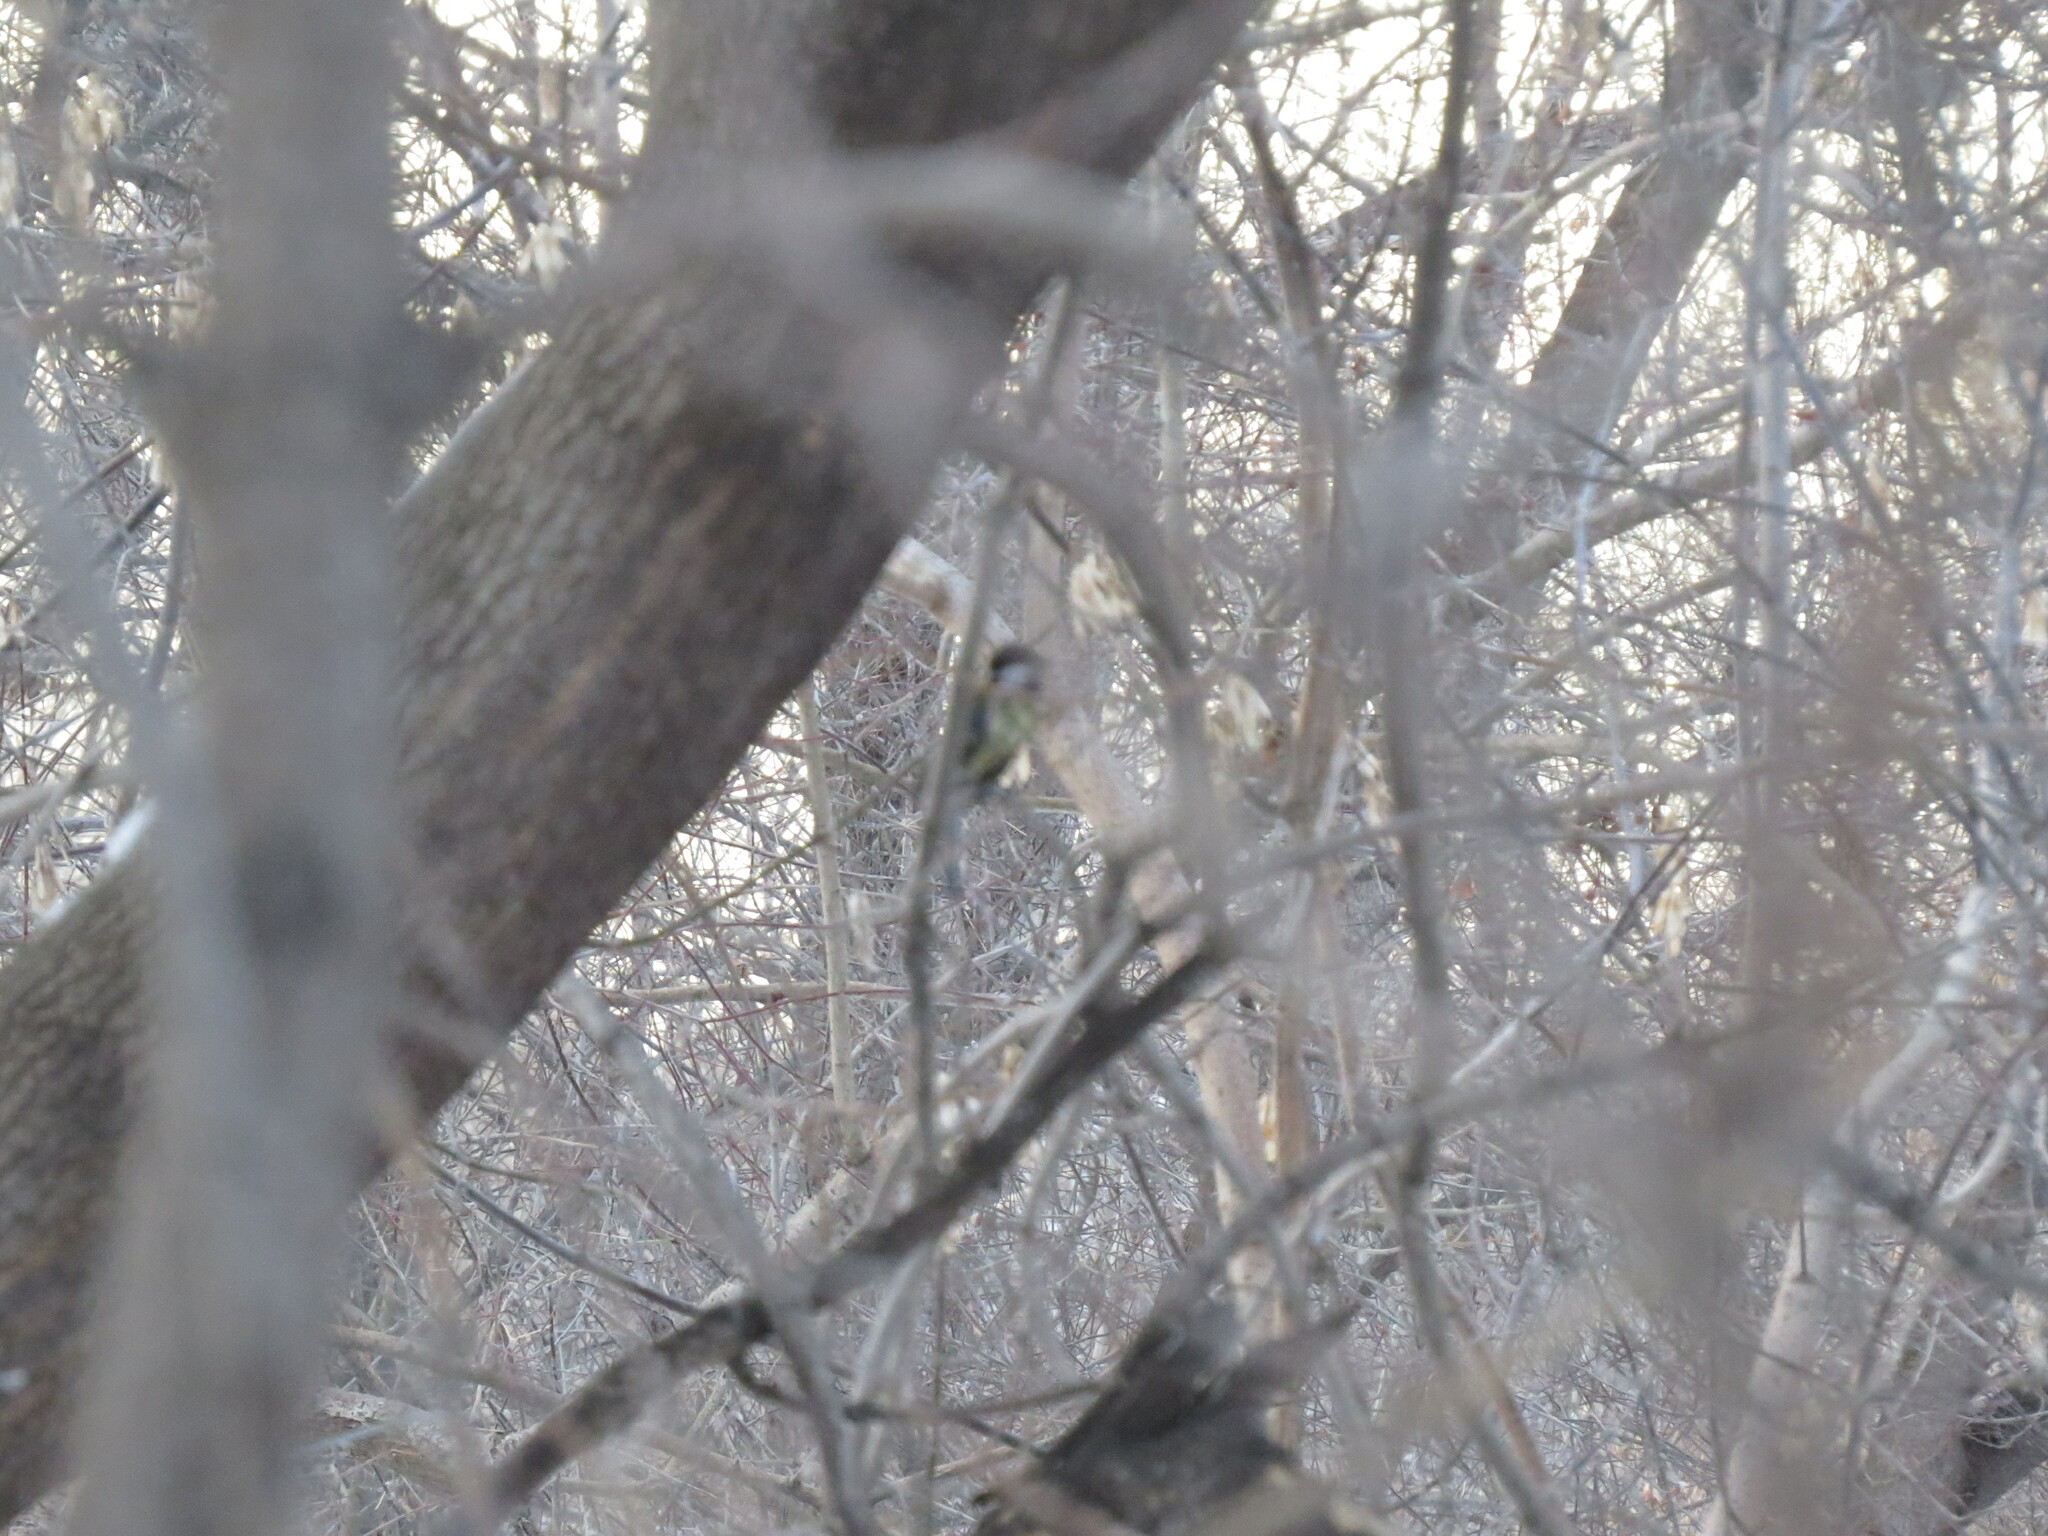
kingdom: Animalia
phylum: Chordata
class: Aves
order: Passeriformes
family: Paridae
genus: Parus
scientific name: Parus major
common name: Great tit
